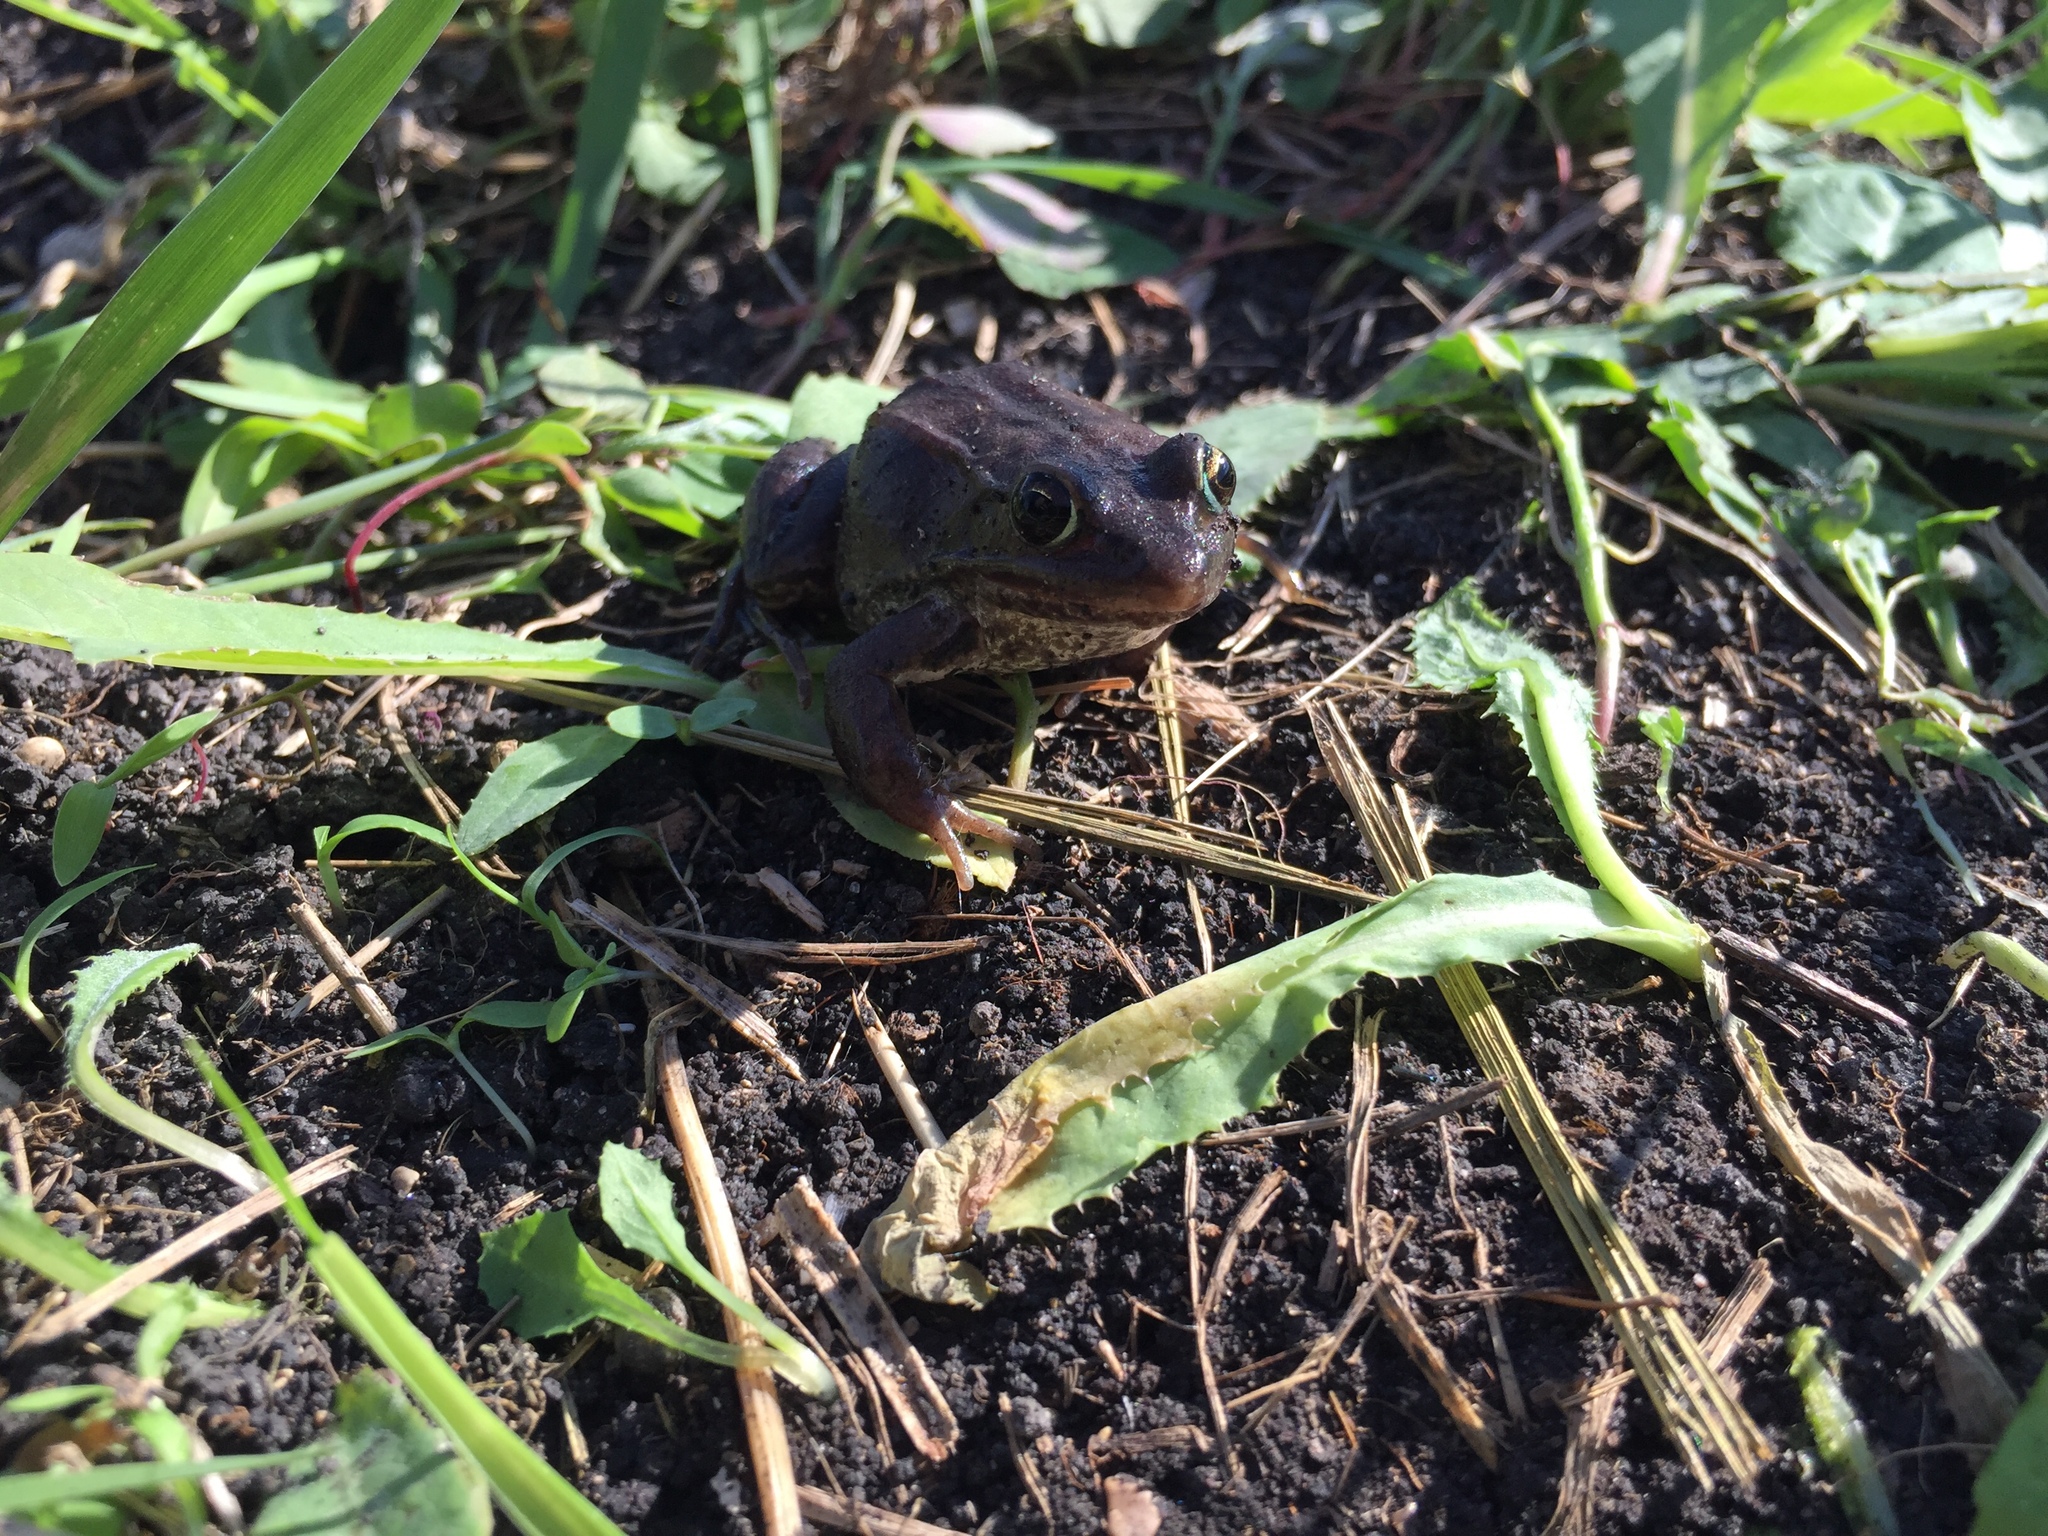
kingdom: Animalia
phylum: Chordata
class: Amphibia
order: Anura
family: Ranidae
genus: Lithobates
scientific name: Lithobates sylvaticus
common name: Wood frog
